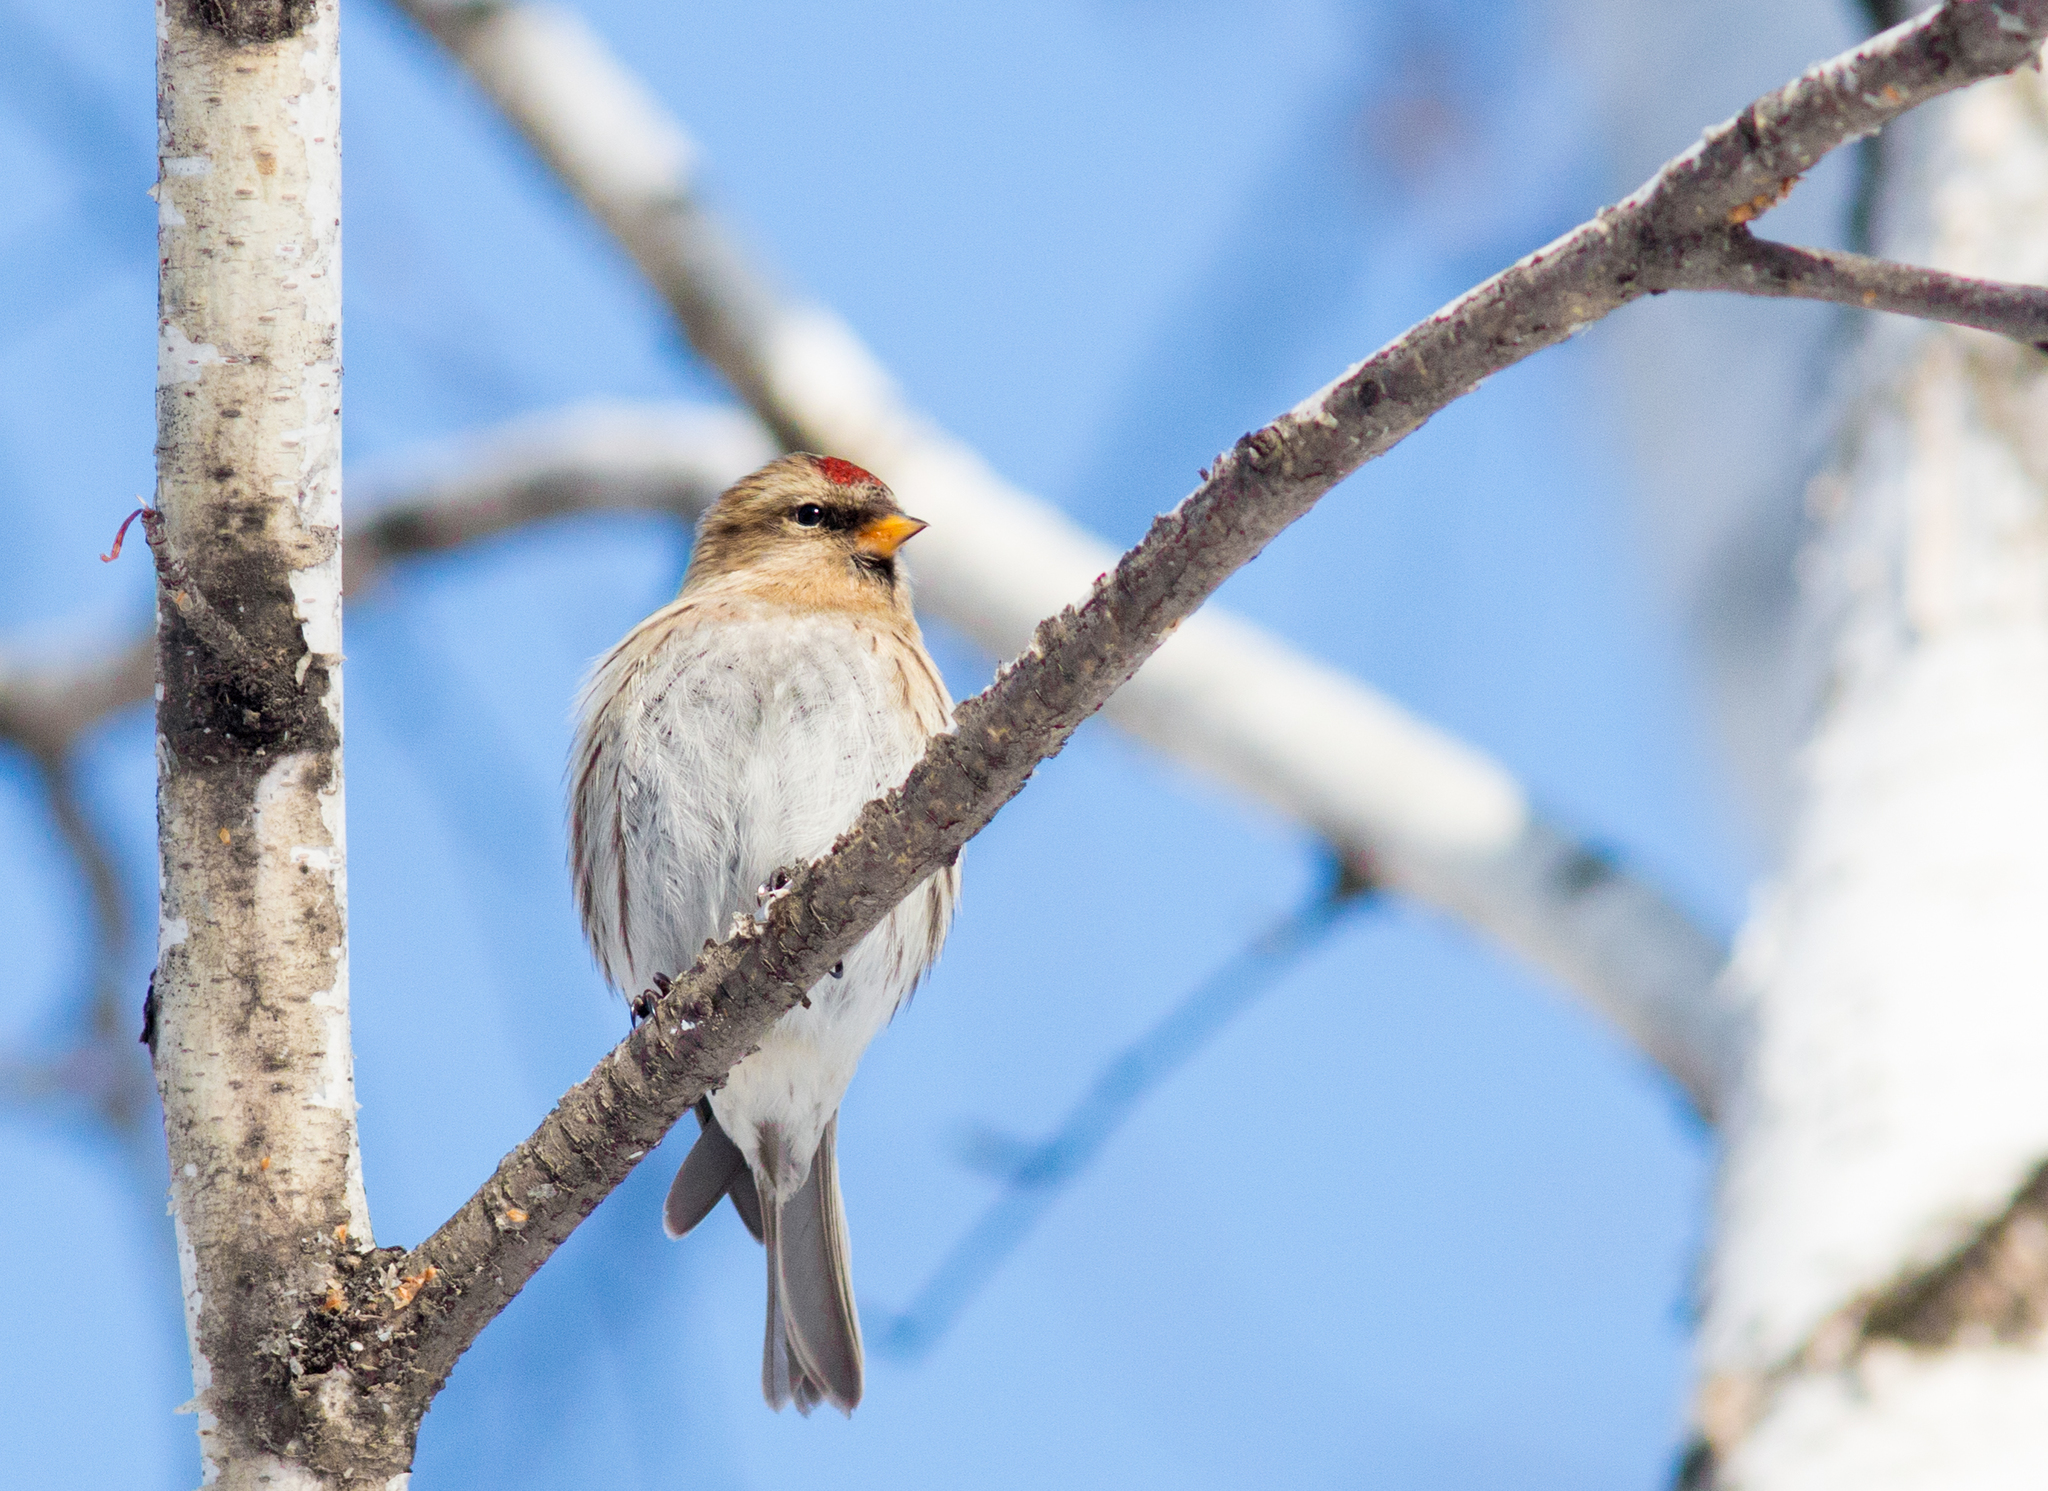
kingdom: Animalia
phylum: Chordata
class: Aves
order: Passeriformes
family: Fringillidae
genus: Acanthis
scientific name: Acanthis flammea
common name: Common redpoll
